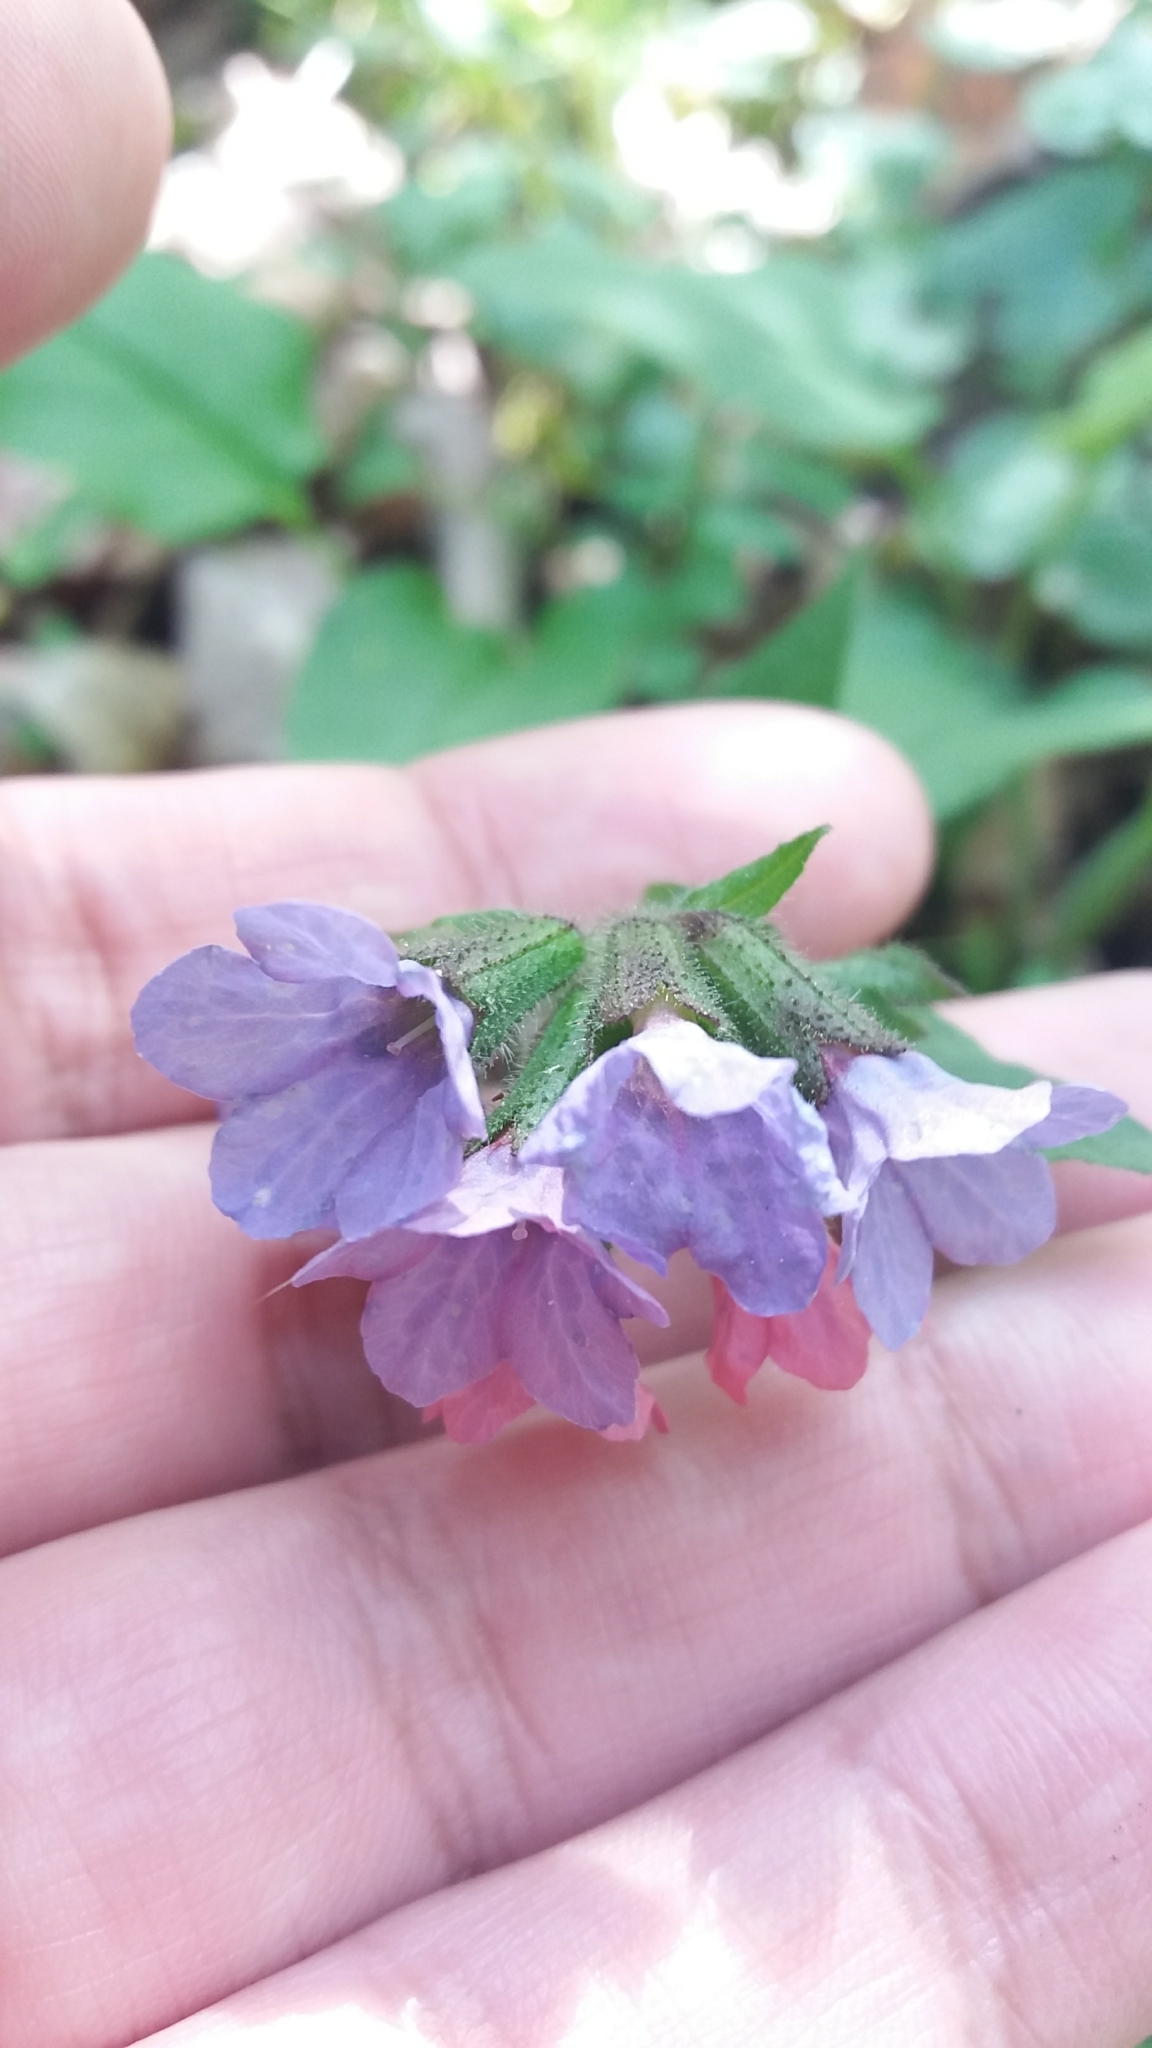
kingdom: Plantae
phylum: Tracheophyta
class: Magnoliopsida
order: Boraginales
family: Boraginaceae
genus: Pulmonaria
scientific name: Pulmonaria obscura
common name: Suffolk lungwort
